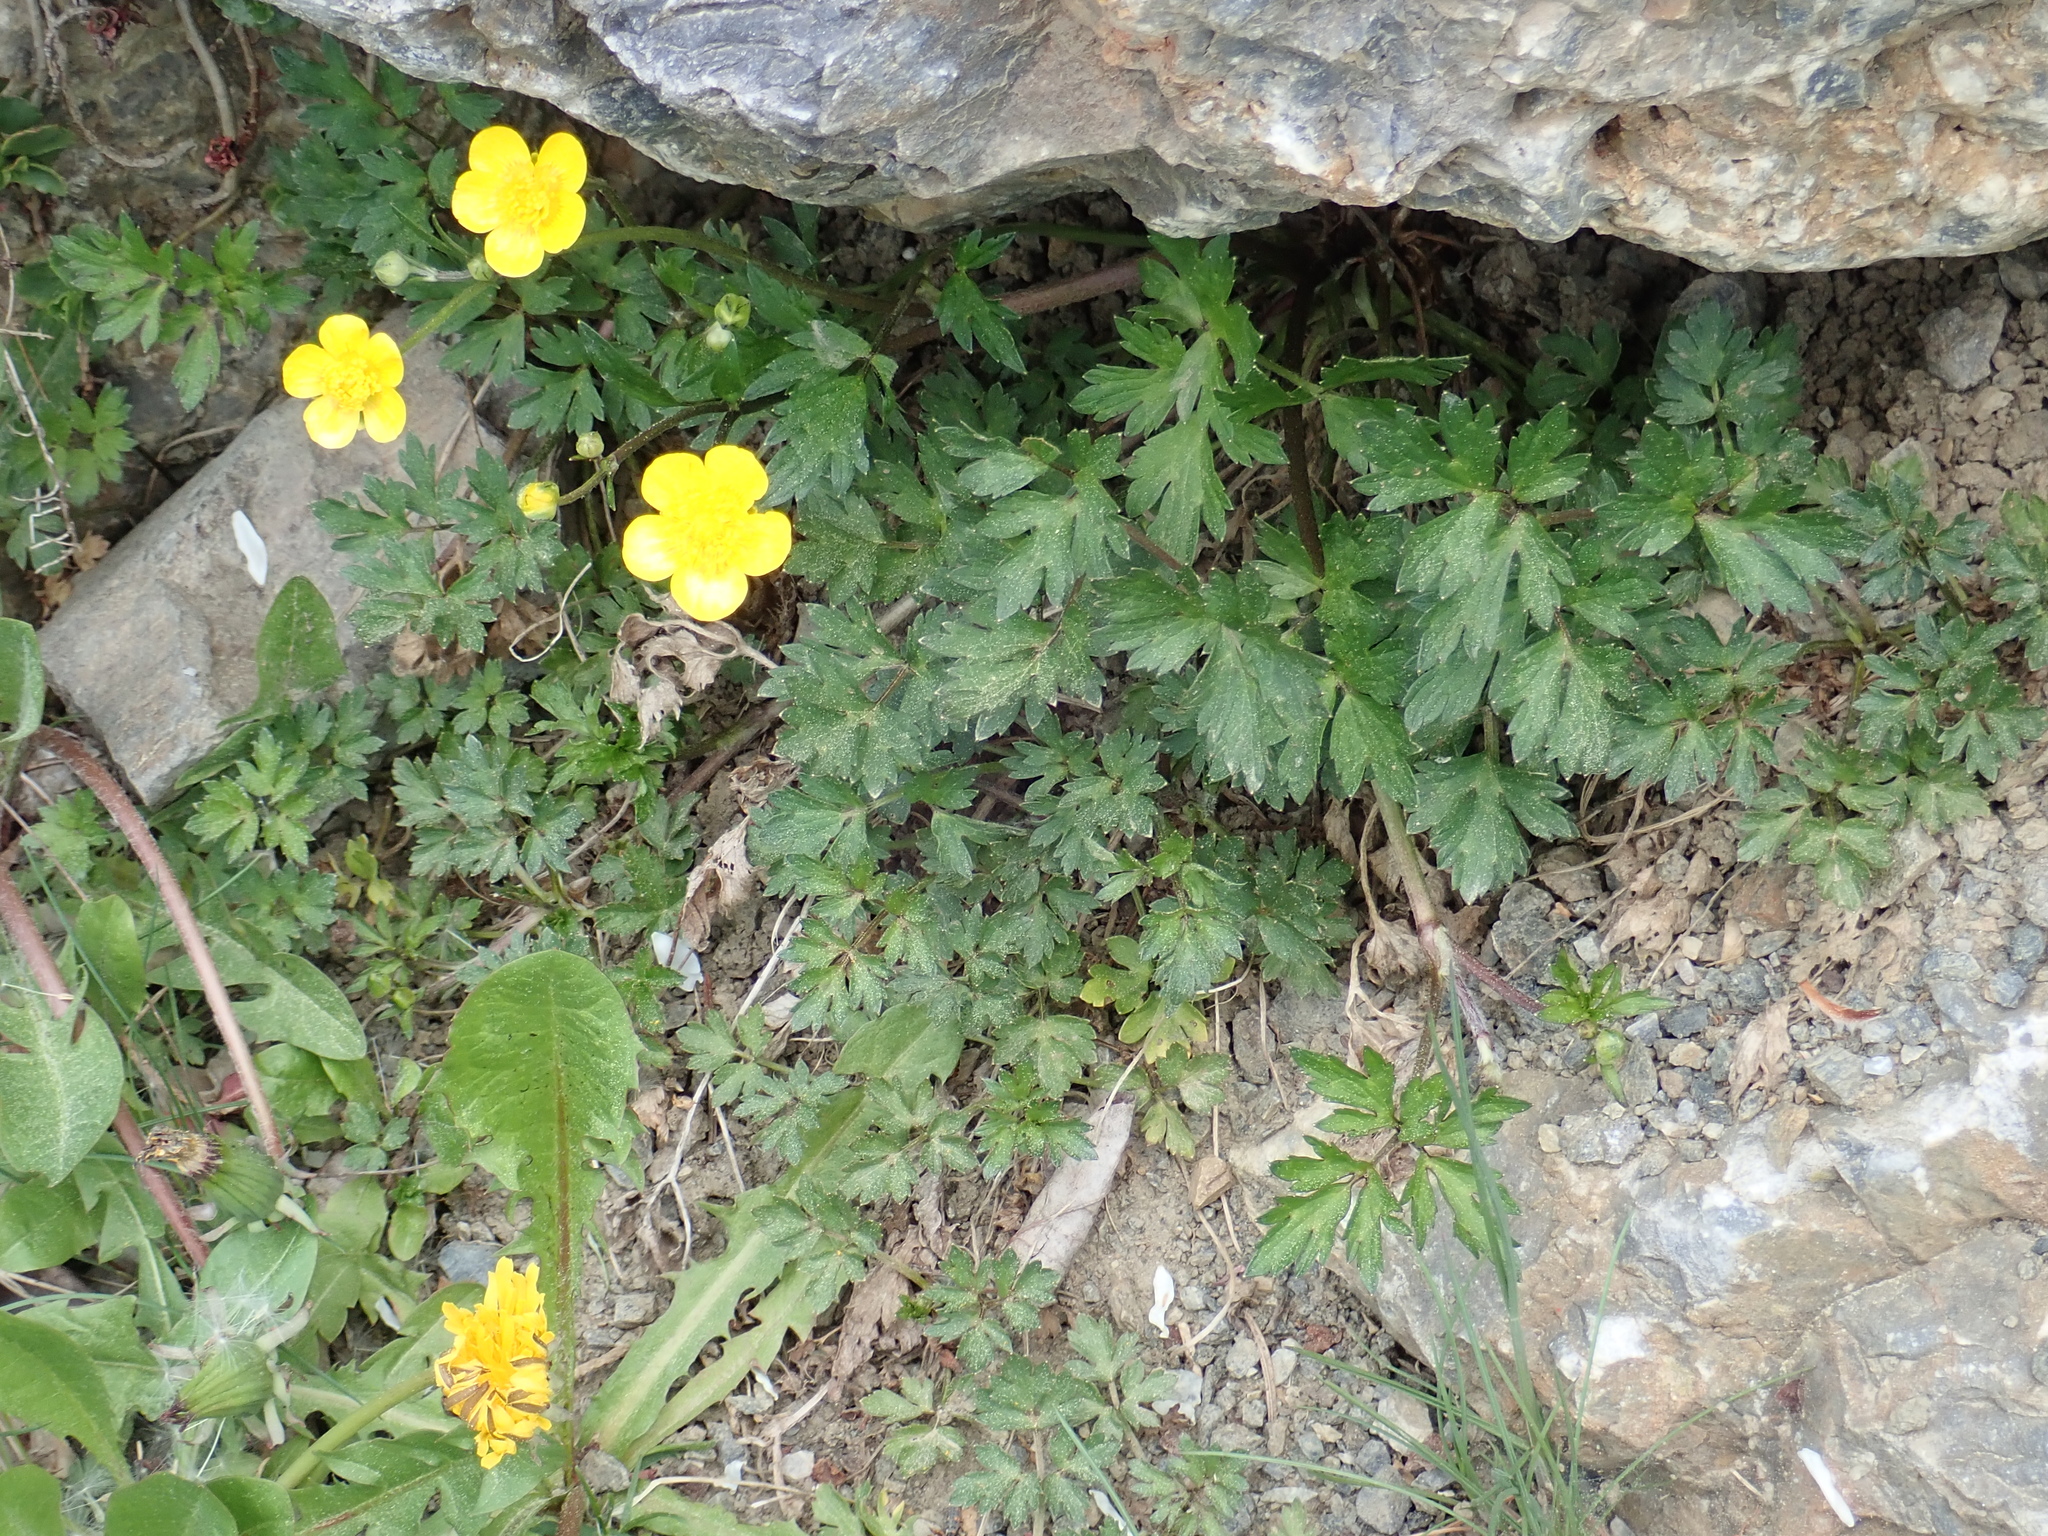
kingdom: Plantae
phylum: Tracheophyta
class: Magnoliopsida
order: Ranunculales
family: Ranunculaceae
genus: Ranunculus
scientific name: Ranunculus repens
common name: Creeping buttercup
